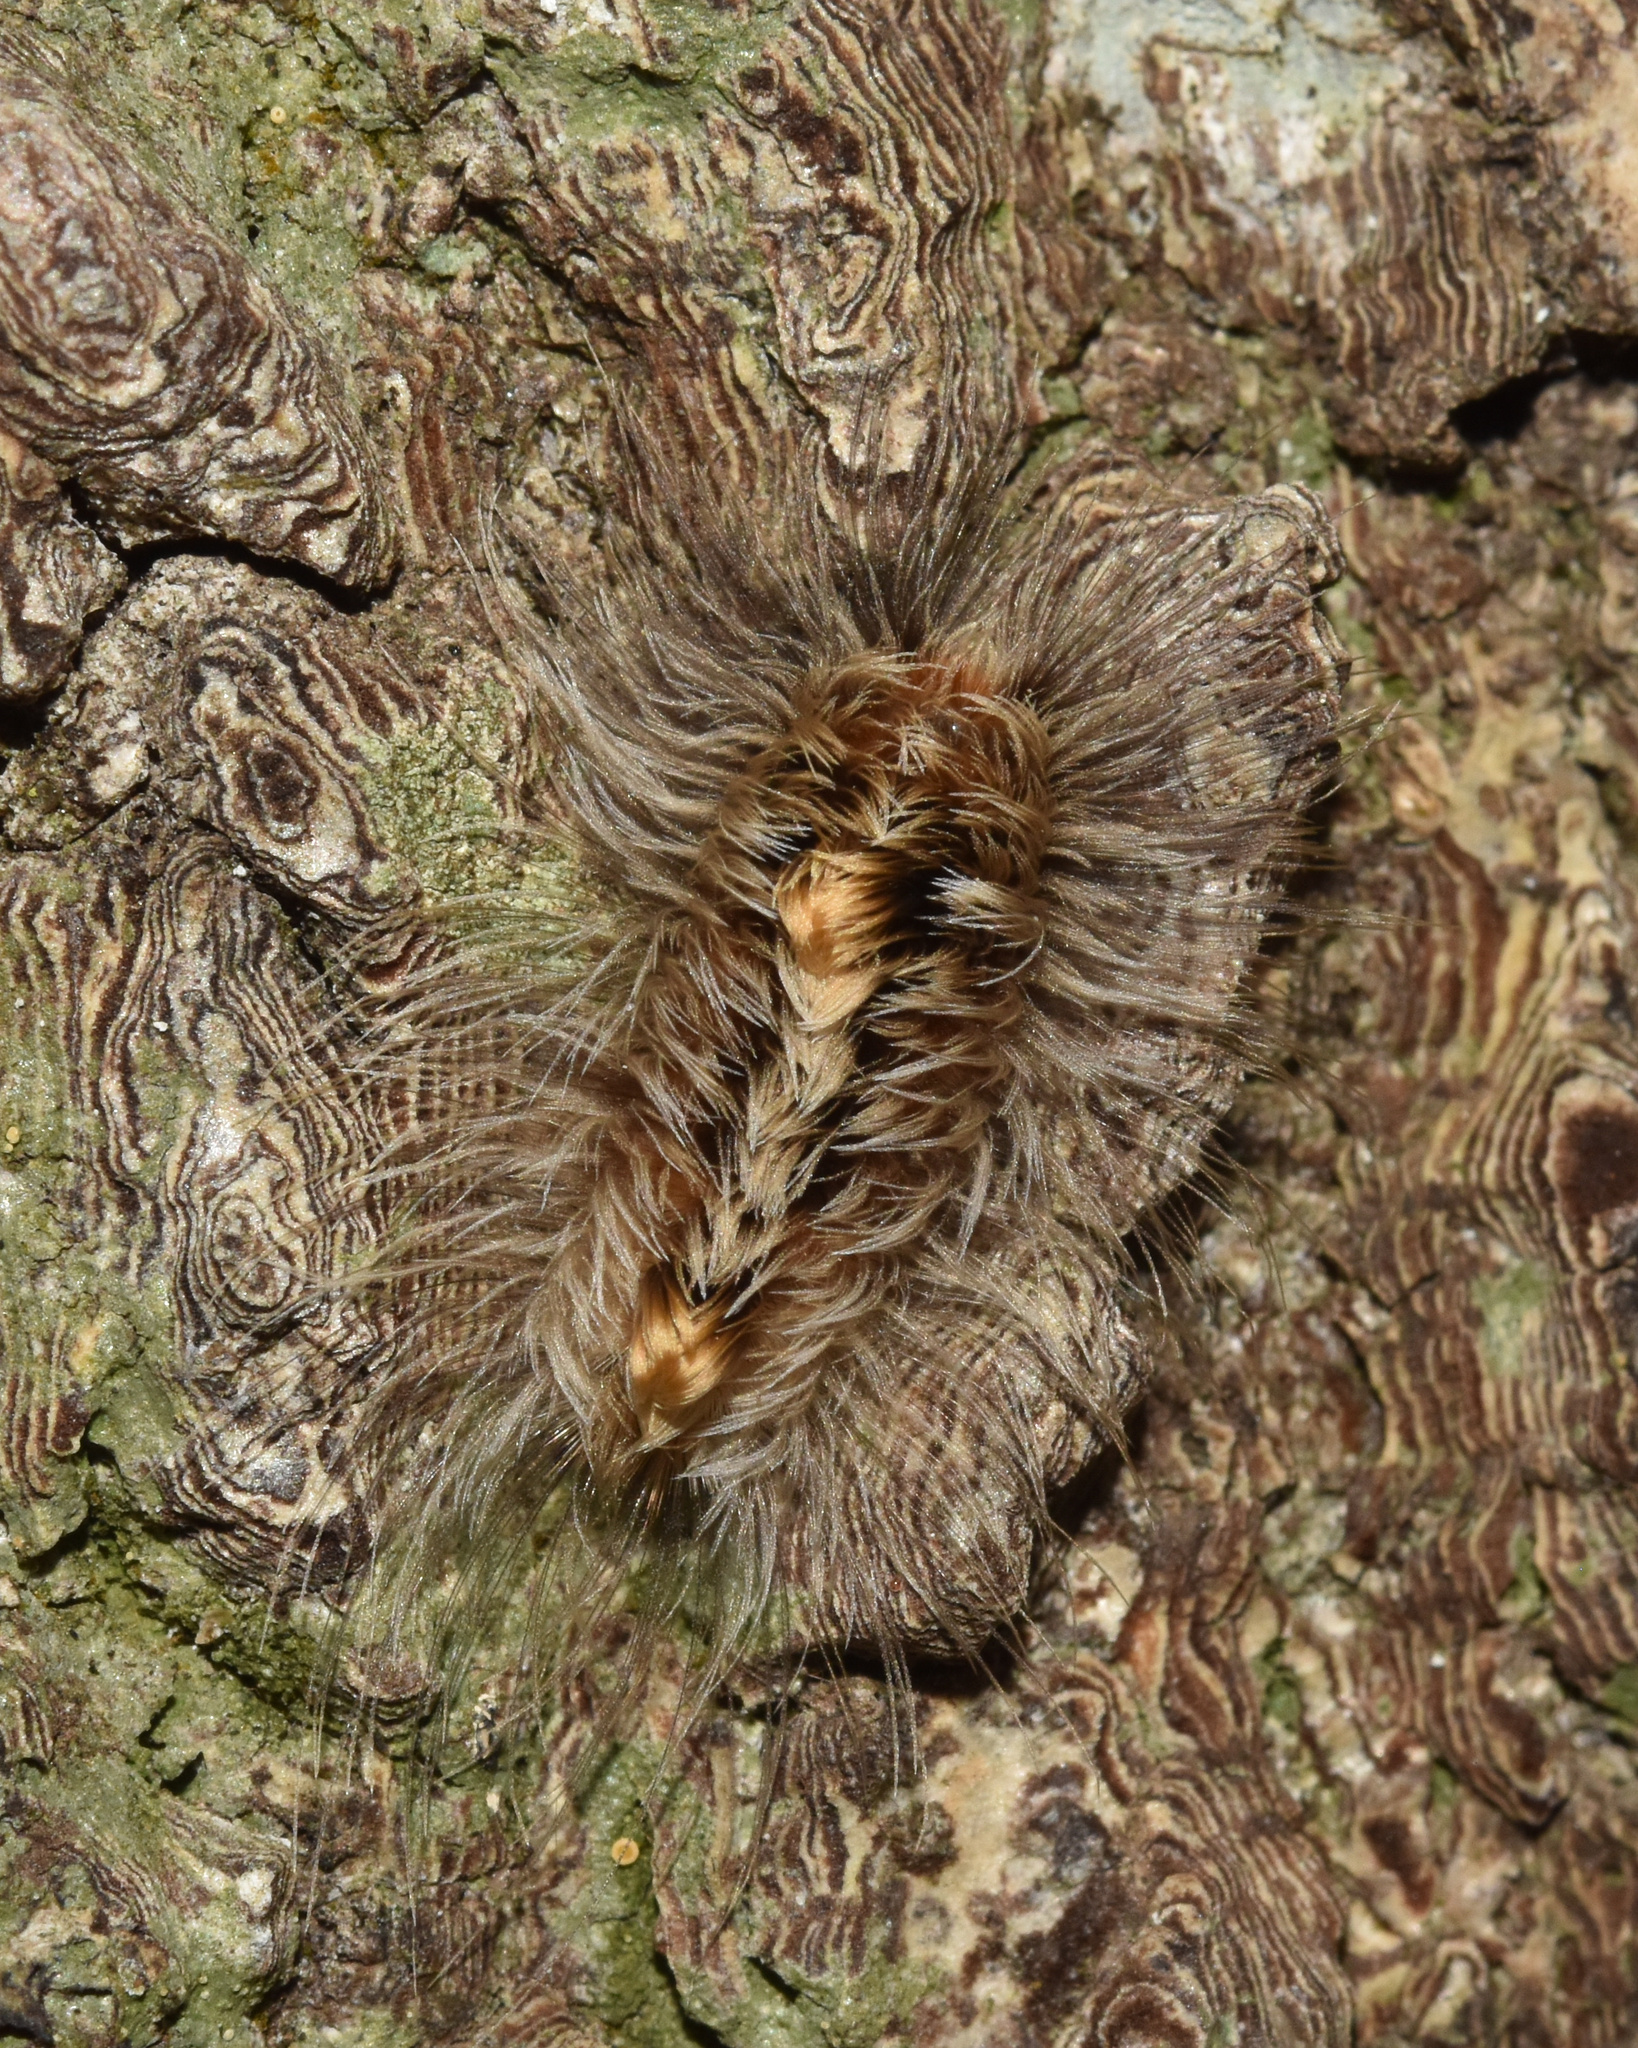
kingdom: Animalia
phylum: Arthropoda
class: Insecta
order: Lepidoptera
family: Erebidae
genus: Tumicla
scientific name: Tumicla sagenaria
